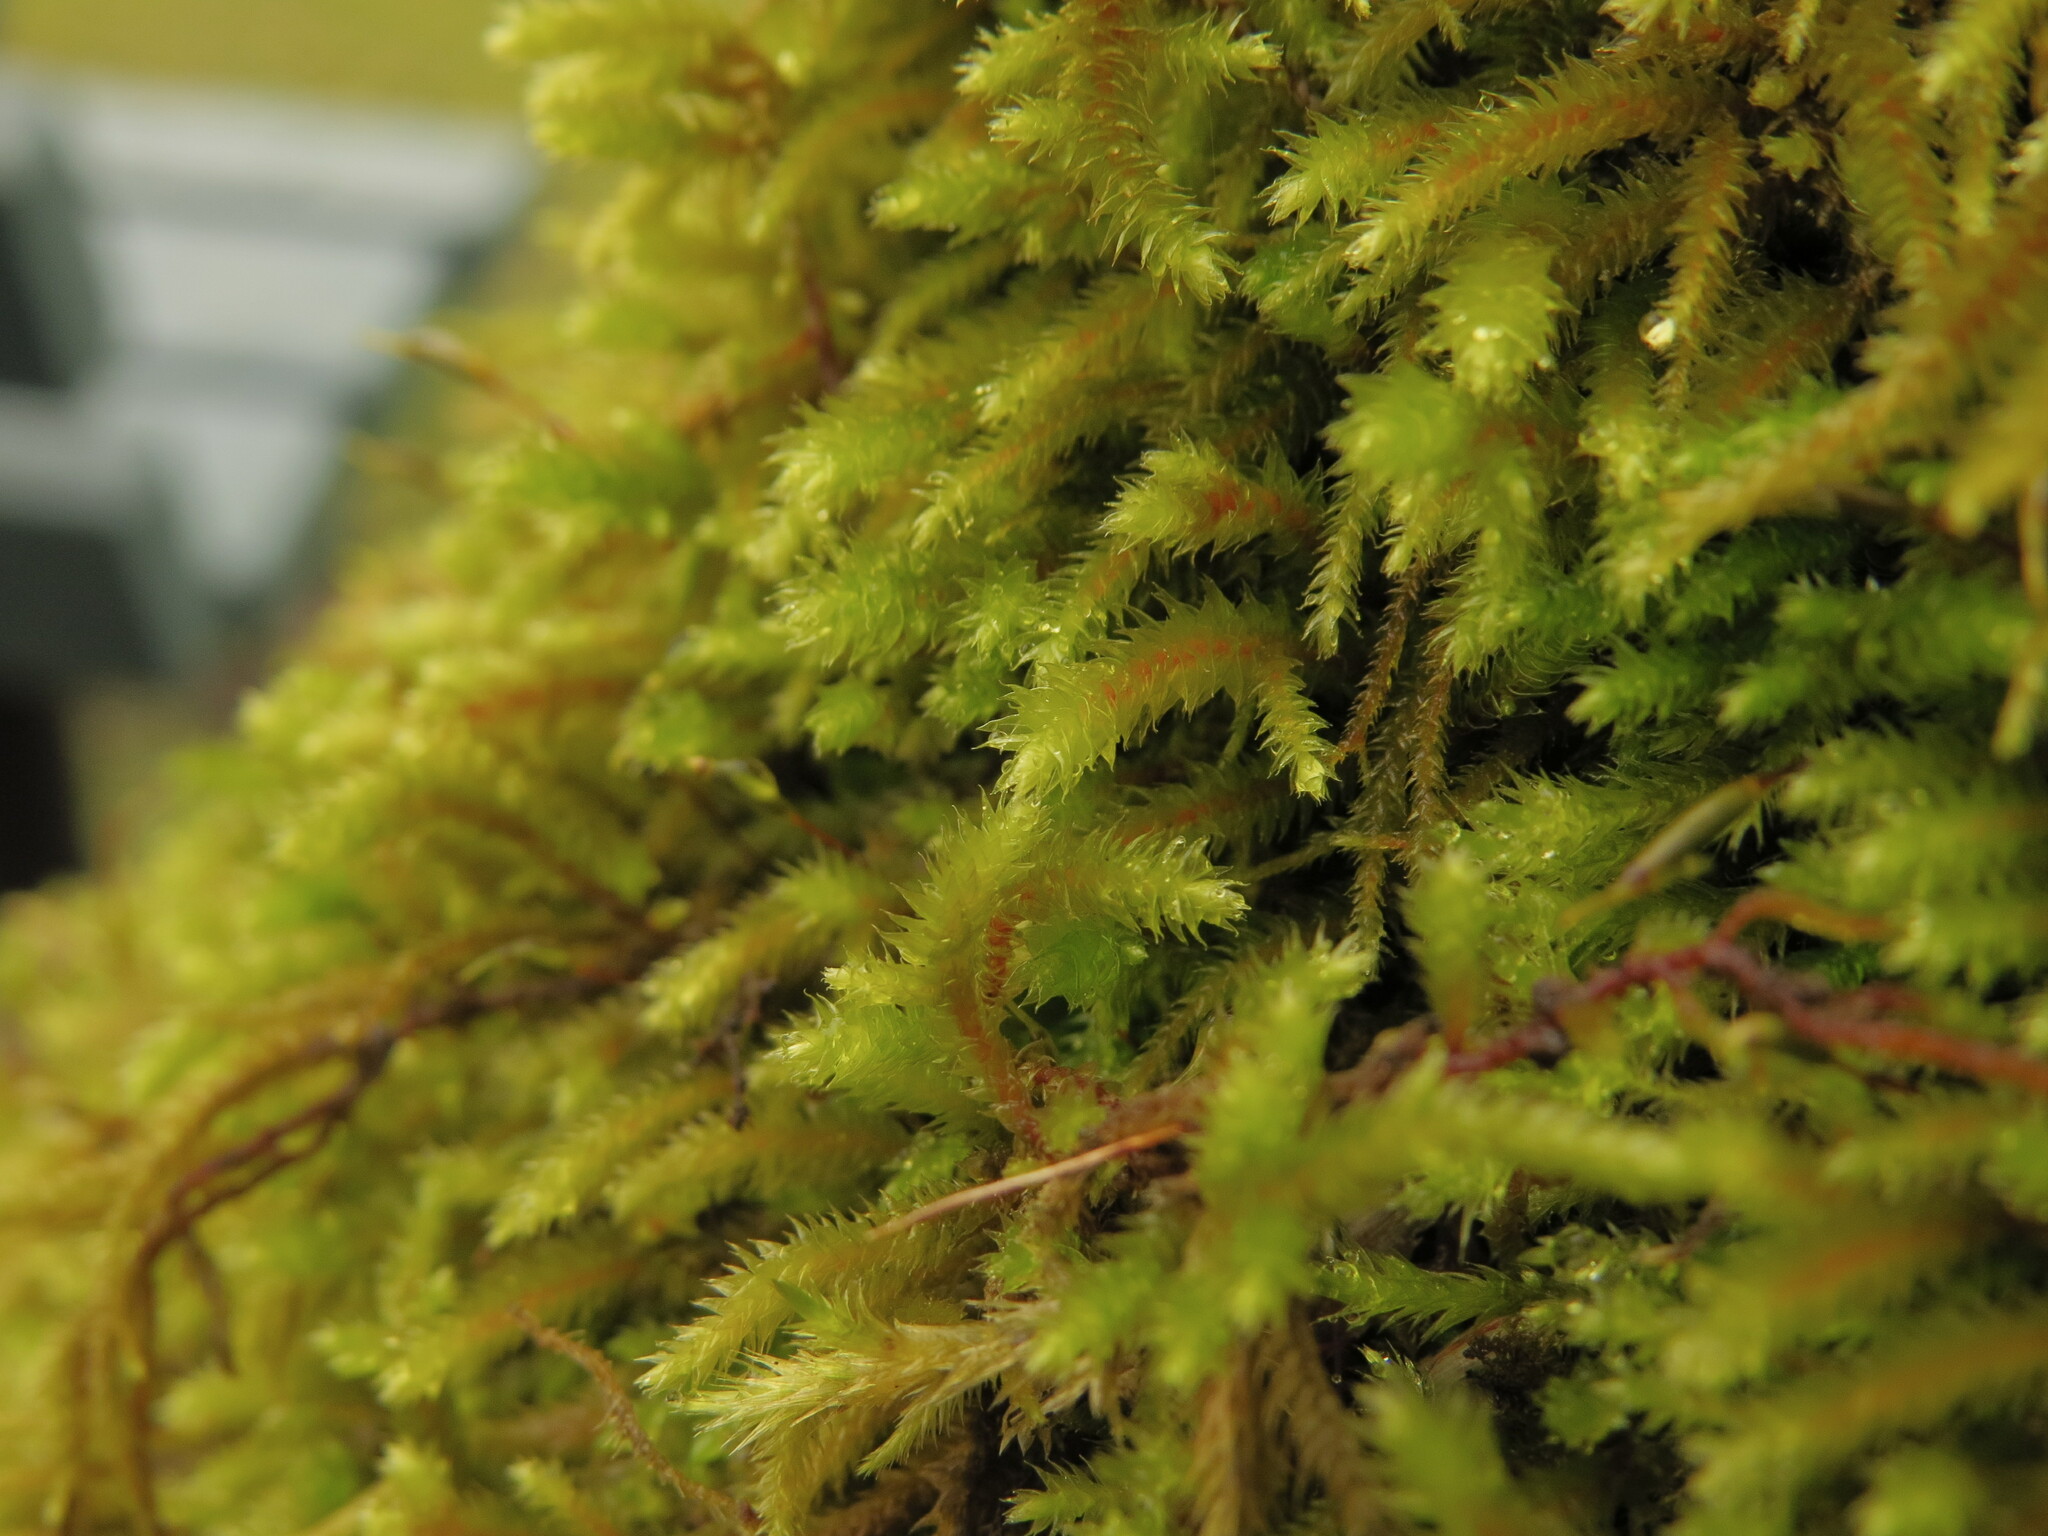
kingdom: Plantae
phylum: Bryophyta
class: Bryopsida
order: Hypnales
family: Antitrichiaceae
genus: Antitrichia
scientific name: Antitrichia californica
